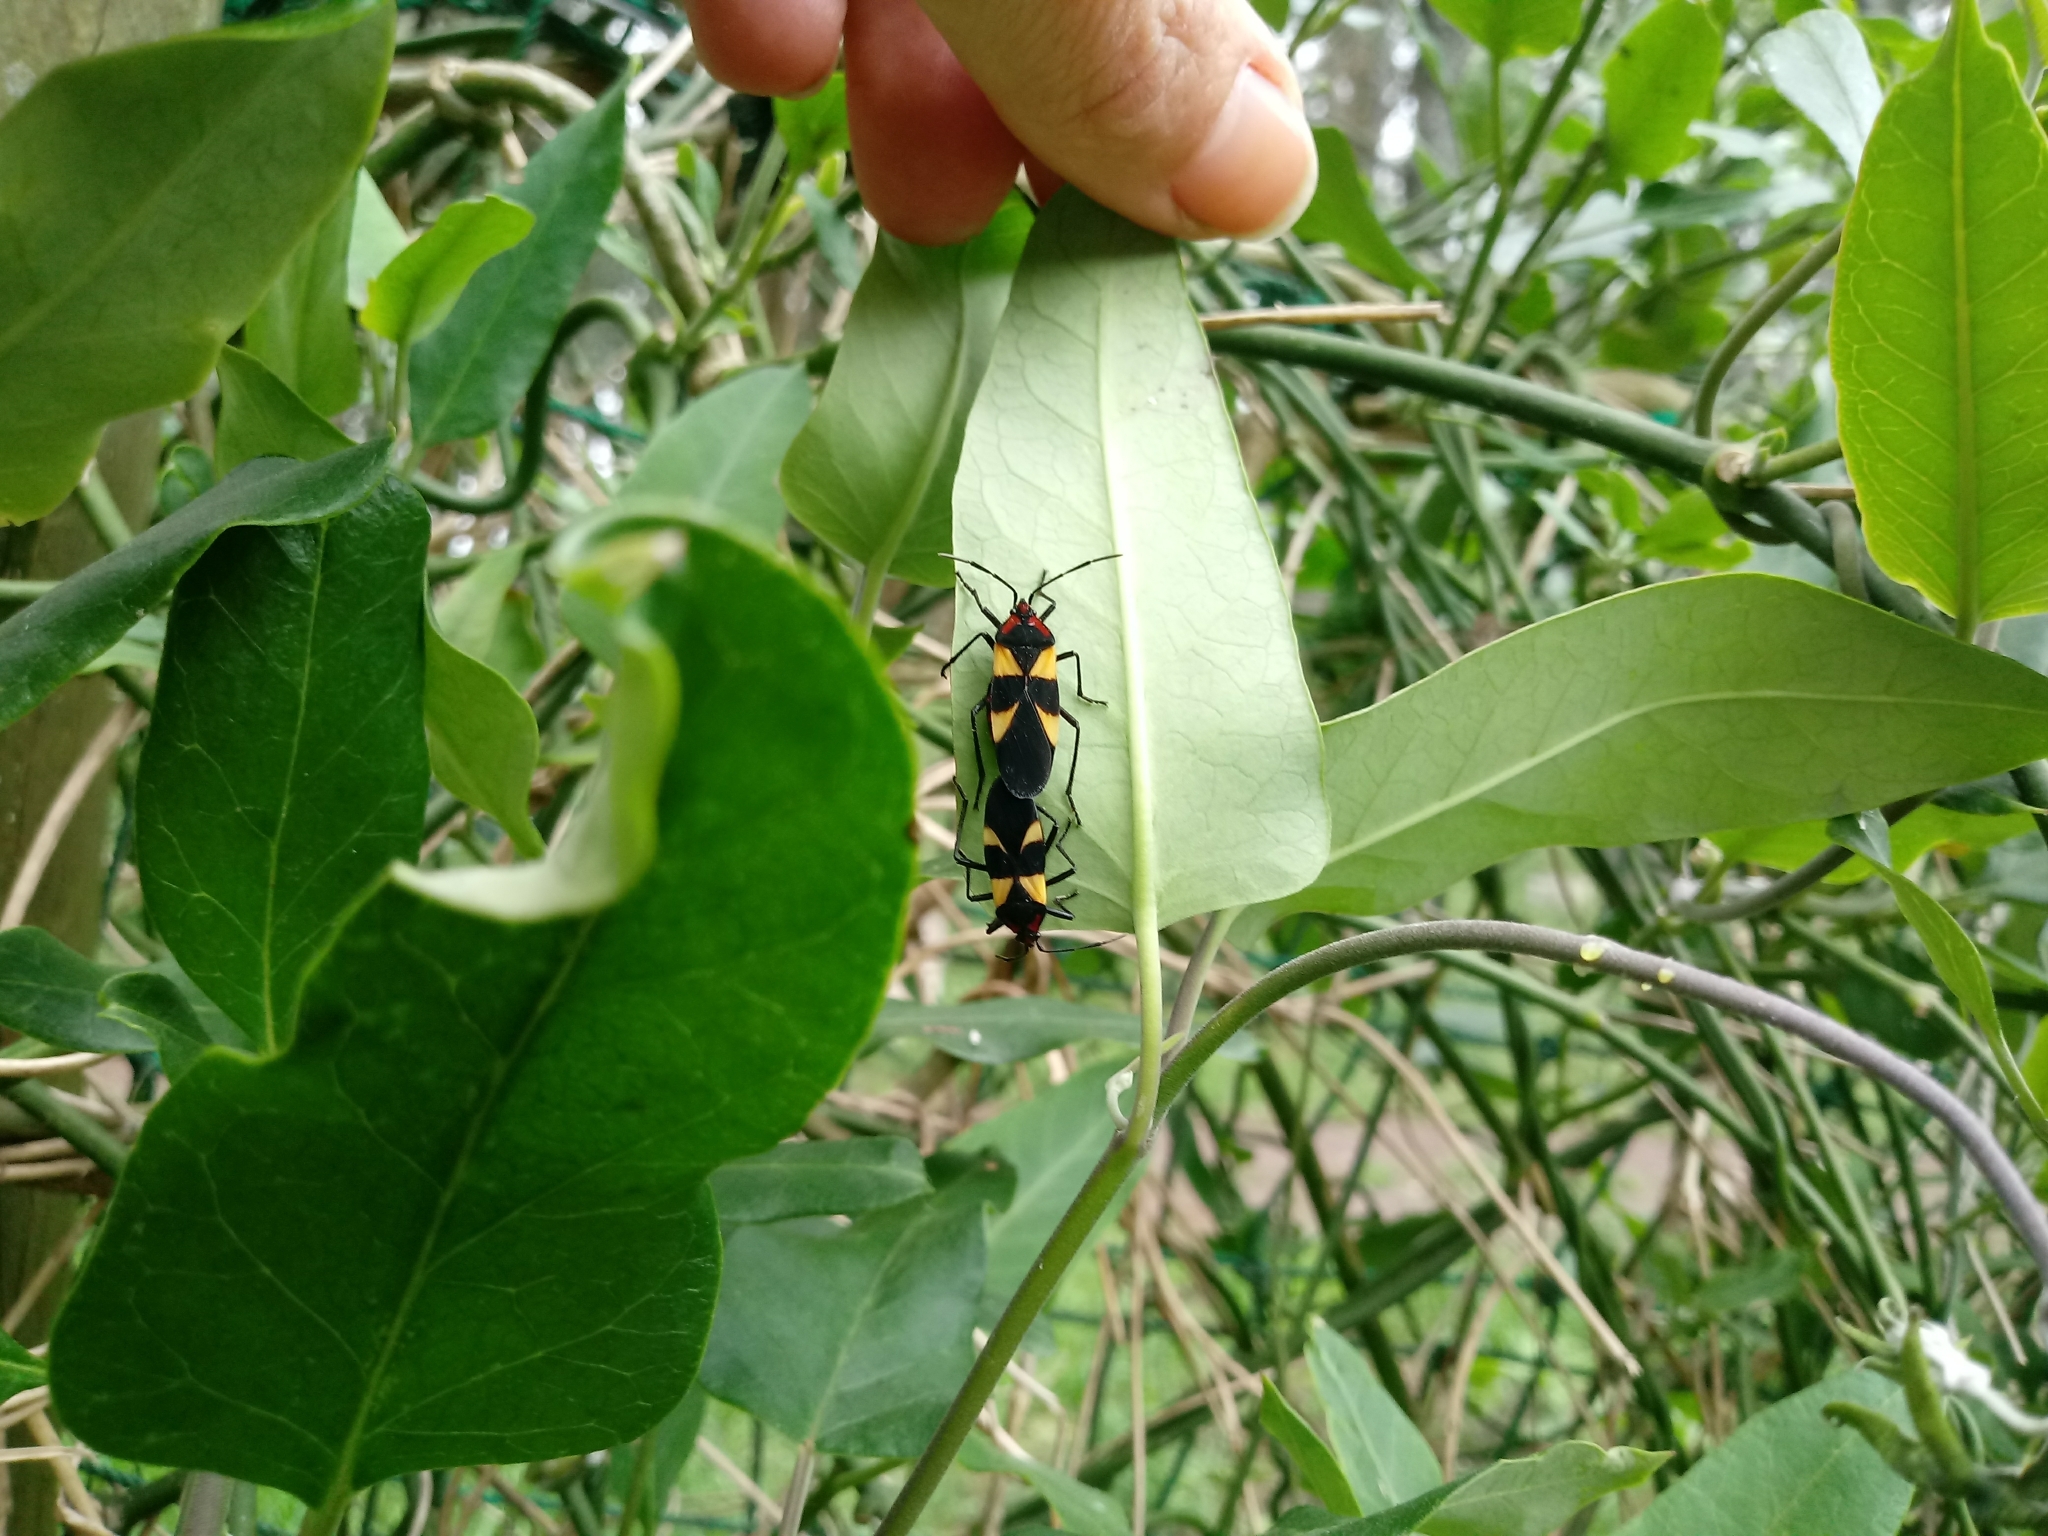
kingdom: Animalia
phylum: Arthropoda
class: Insecta
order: Hemiptera
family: Lygaeidae
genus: Oncopeltus
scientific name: Oncopeltus varicolor
